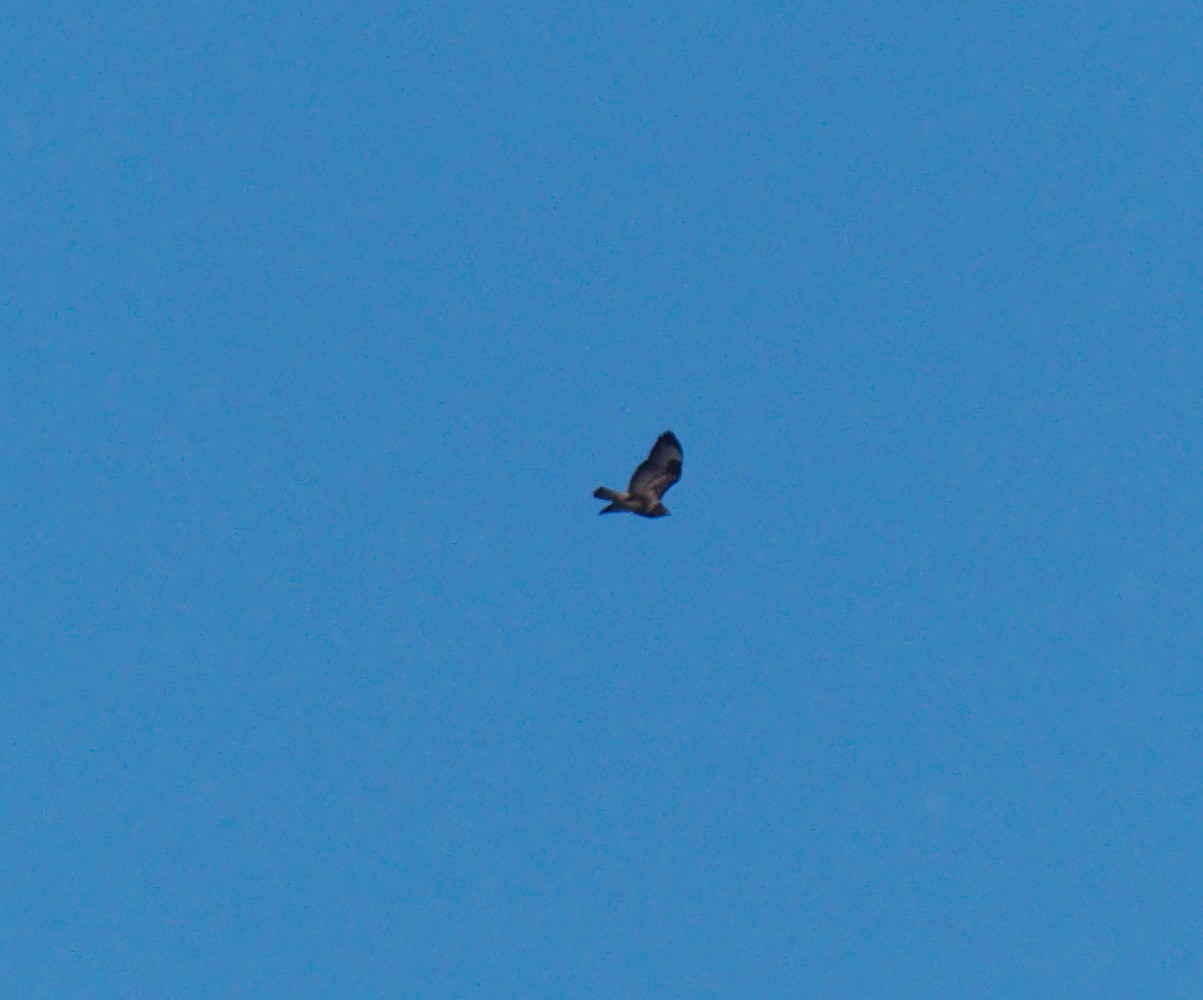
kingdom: Animalia
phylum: Chordata
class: Aves
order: Accipitriformes
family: Accipitridae
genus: Buteo
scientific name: Buteo buteo
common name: Common buzzard
